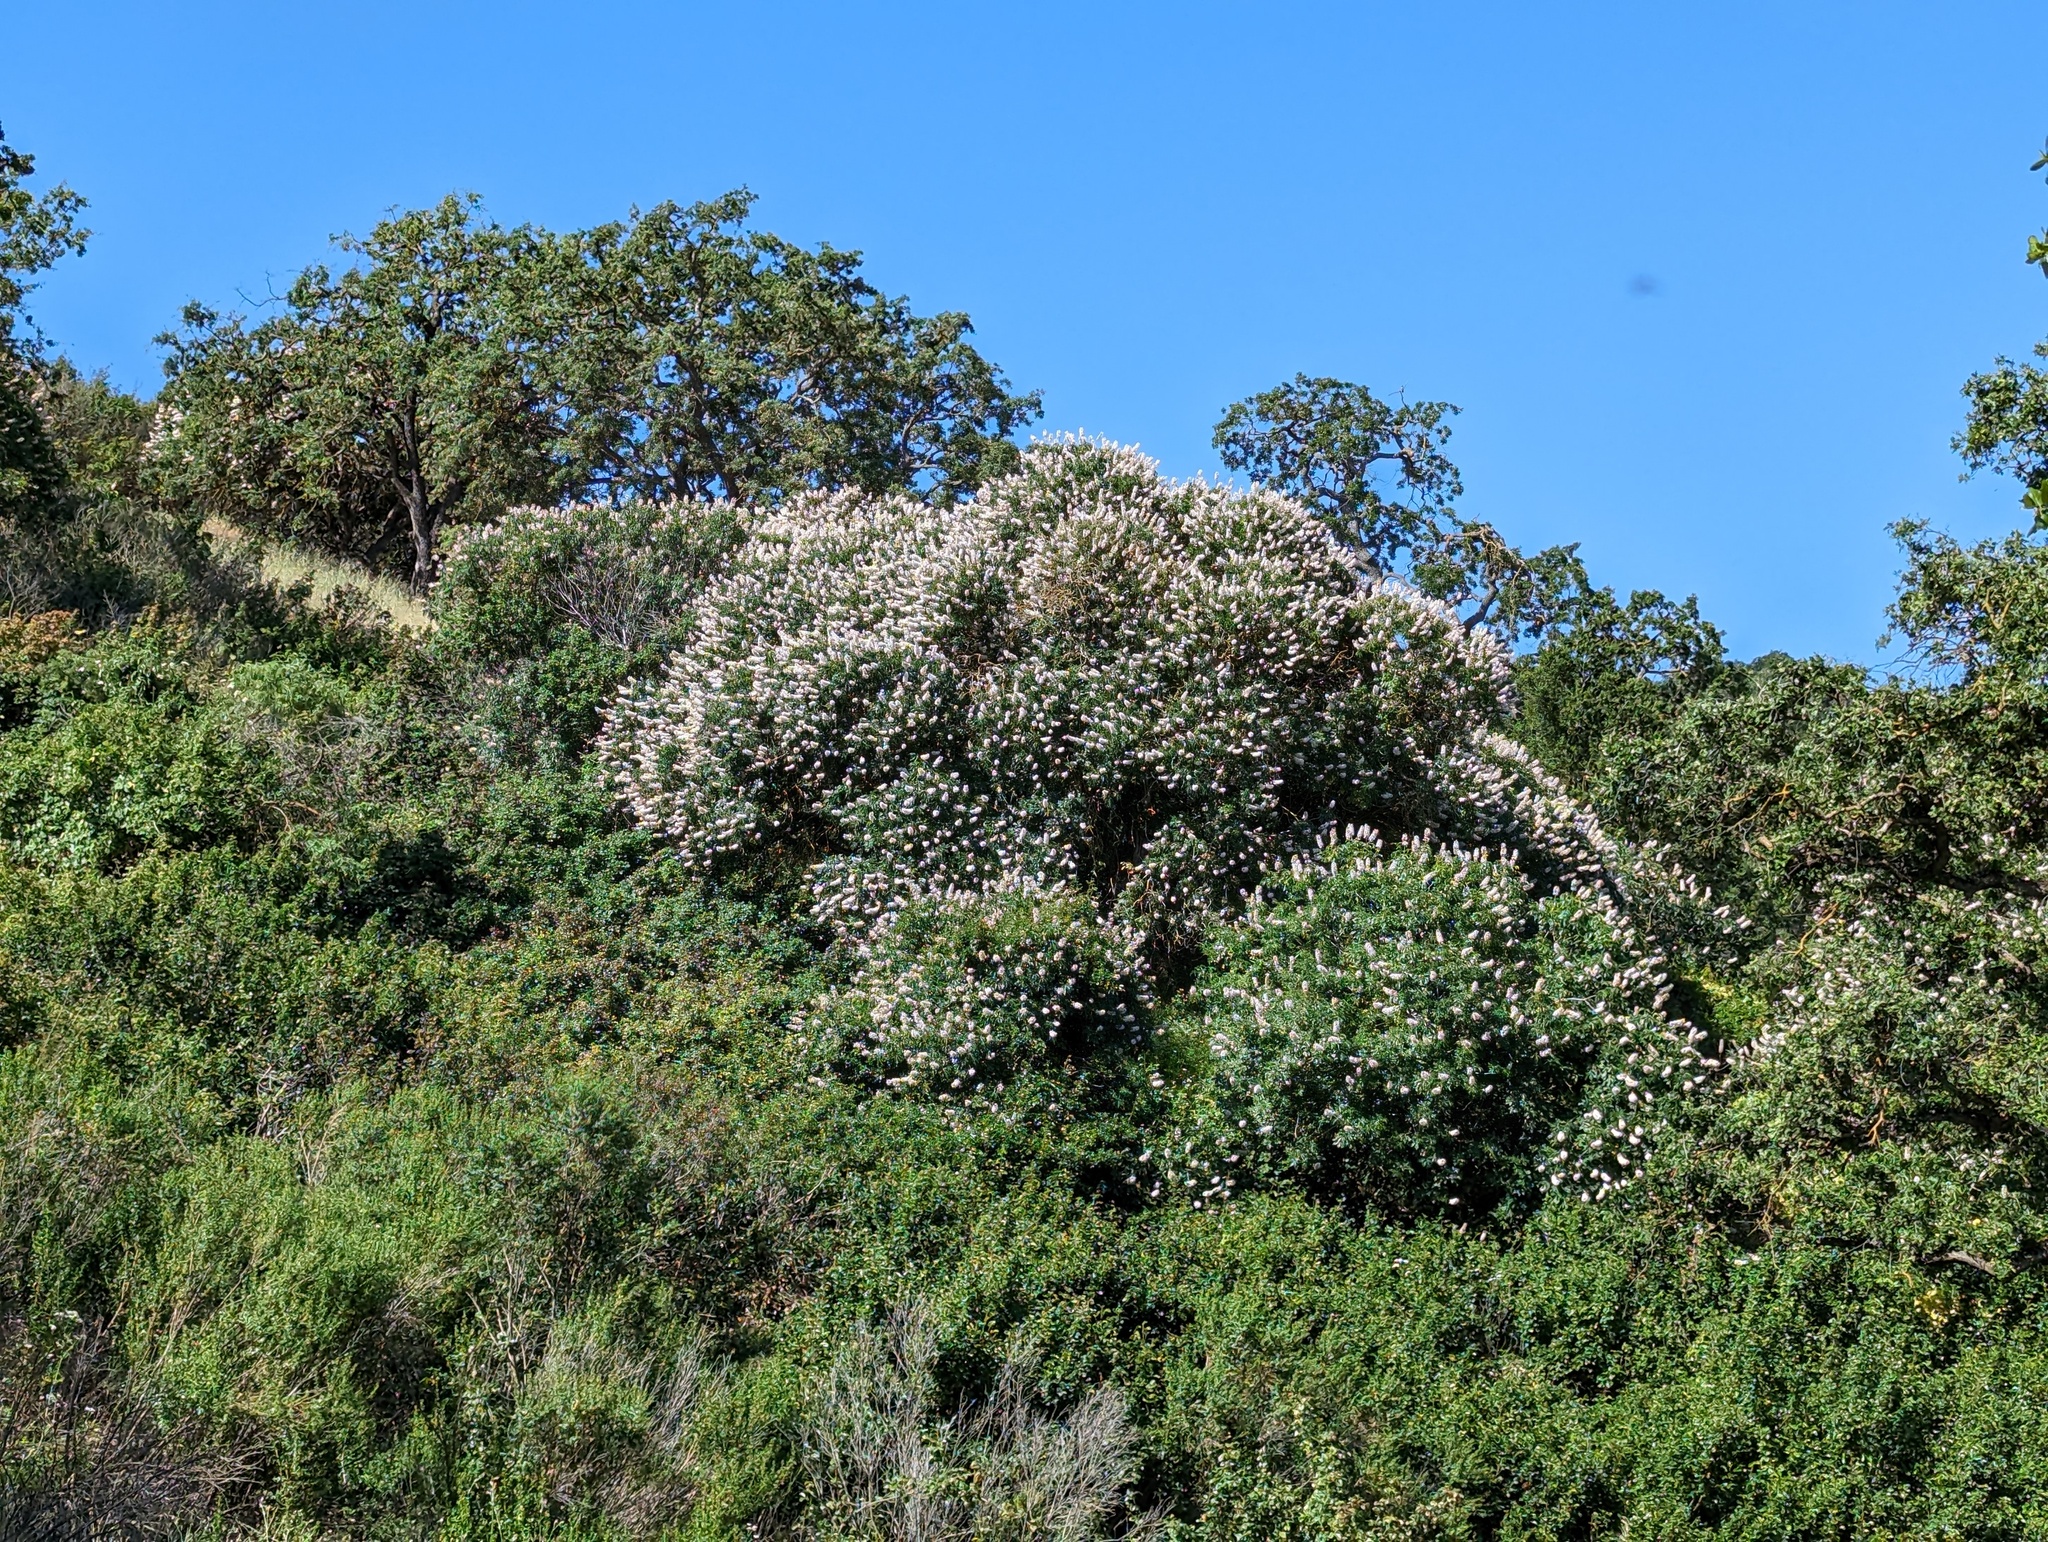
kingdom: Plantae
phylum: Tracheophyta
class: Magnoliopsida
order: Sapindales
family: Sapindaceae
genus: Aesculus
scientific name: Aesculus californica
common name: California buckeye
